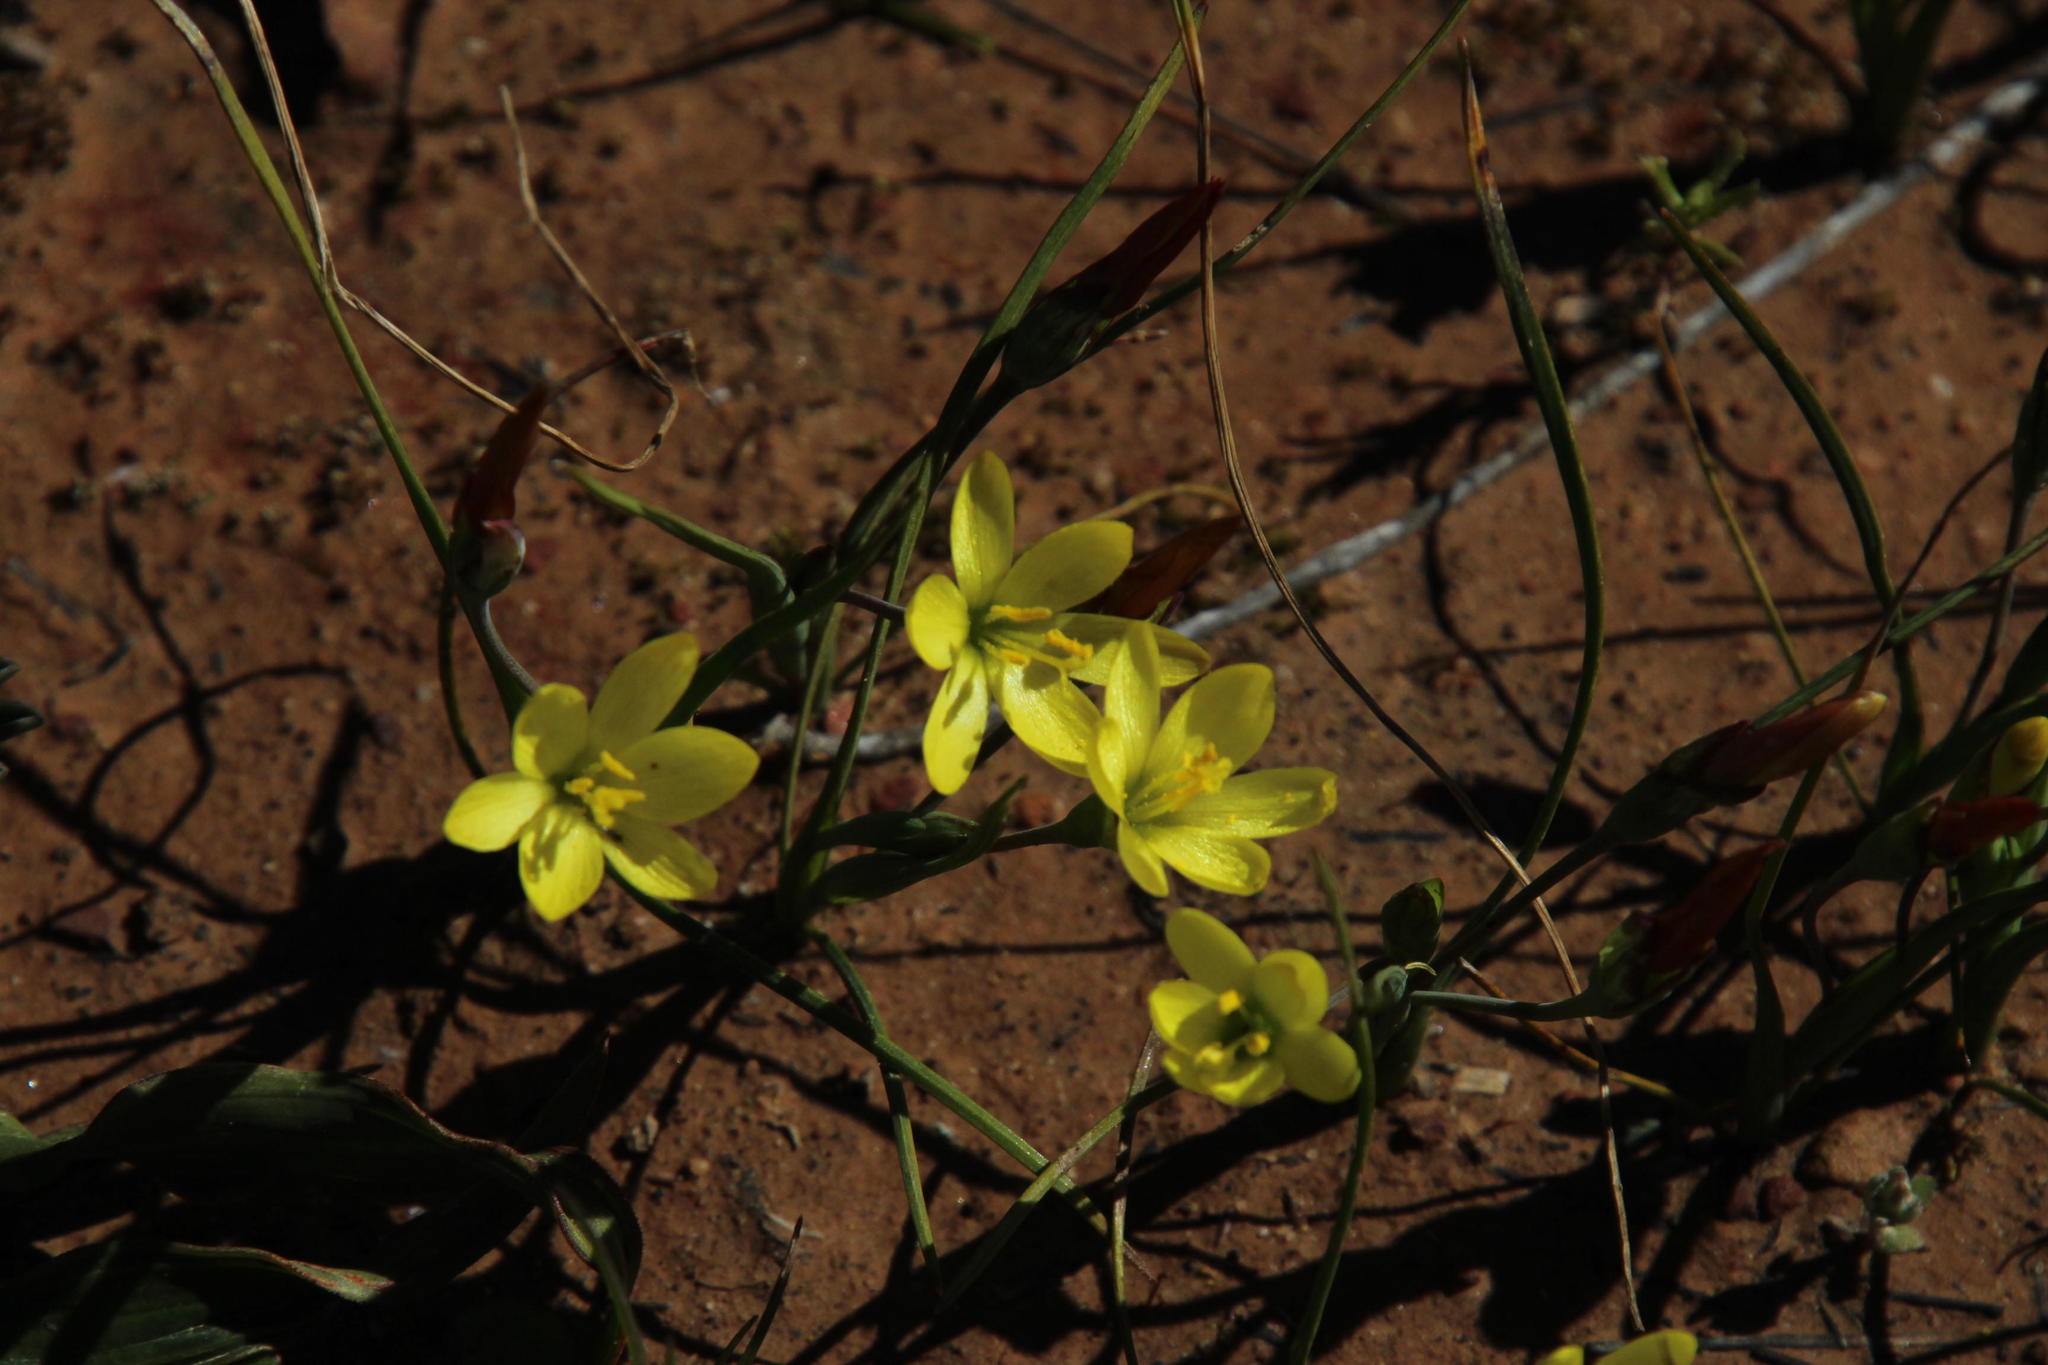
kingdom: Plantae
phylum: Tracheophyta
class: Liliopsida
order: Asparagales
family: Iridaceae
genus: Geissorhiza
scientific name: Geissorhiza ornithogaloides
